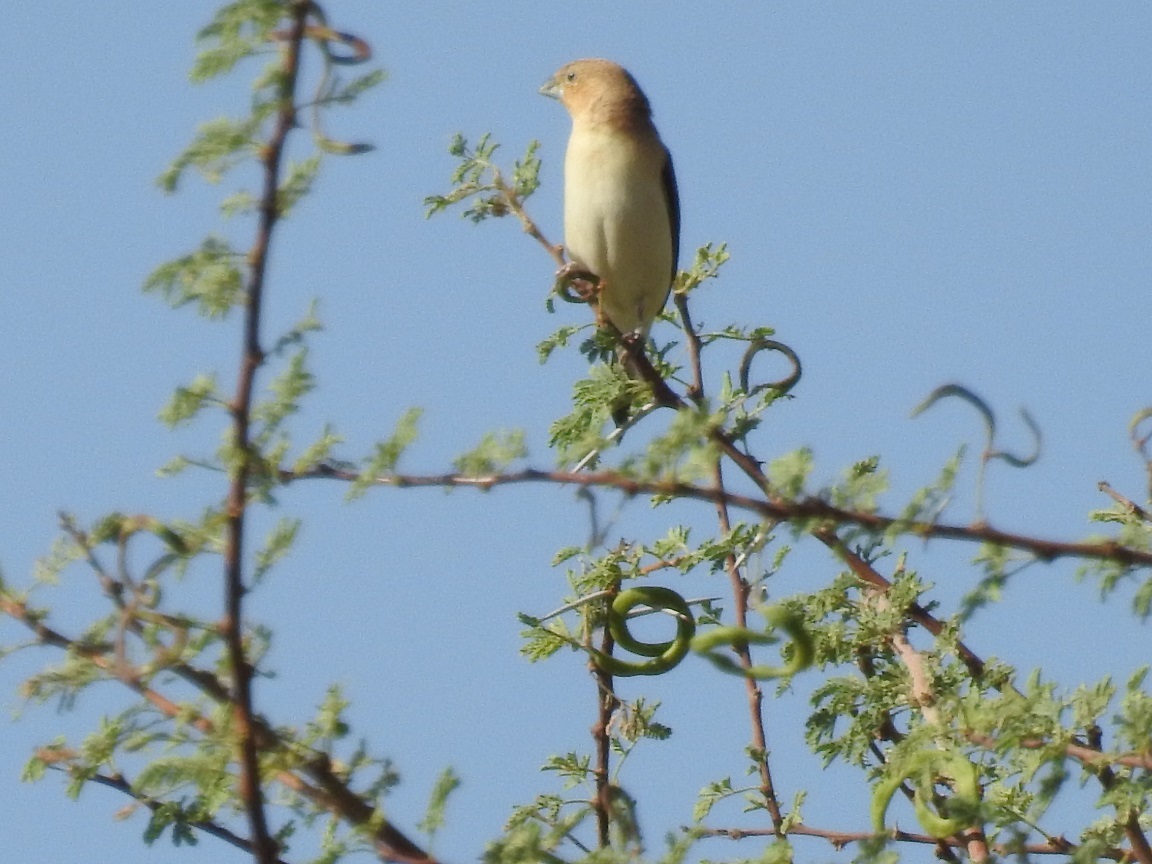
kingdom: Animalia
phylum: Chordata
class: Aves
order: Passeriformes
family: Estrildidae
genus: Euodice
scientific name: Euodice cantans
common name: African silverbill
